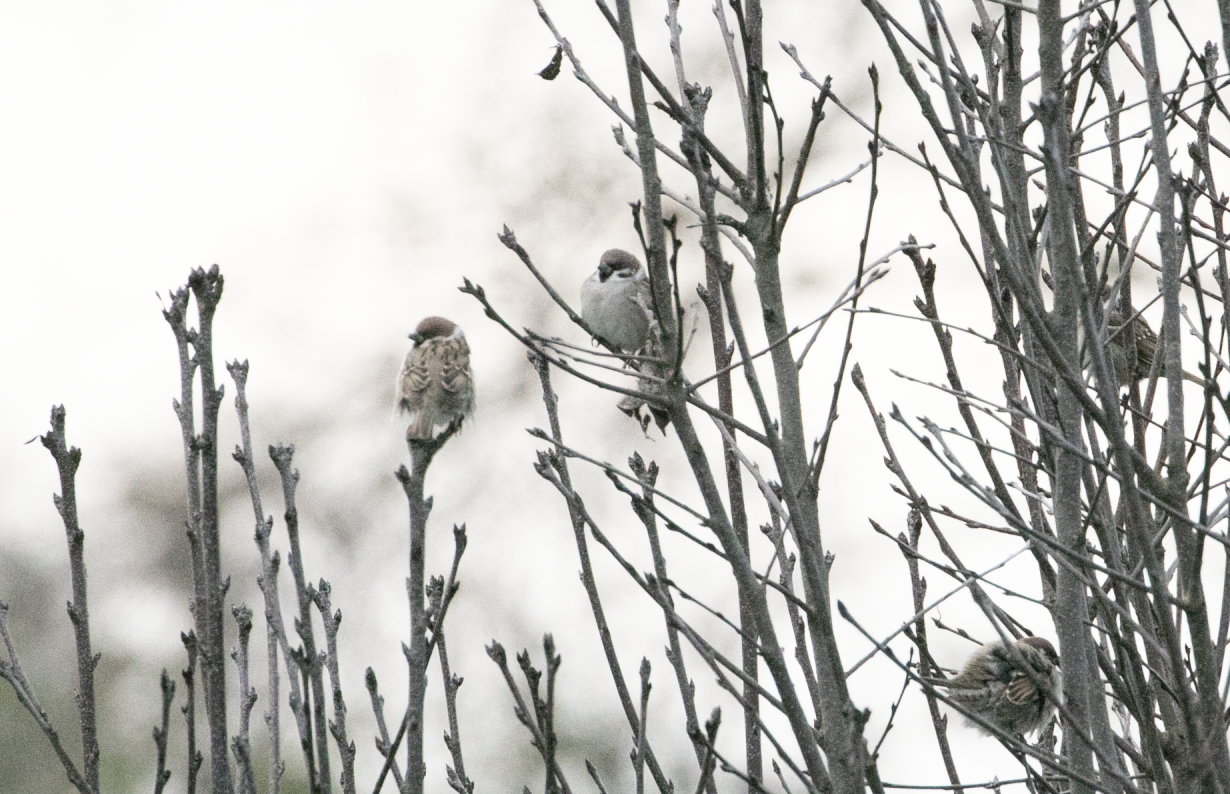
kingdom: Animalia
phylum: Chordata
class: Aves
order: Passeriformes
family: Passeridae
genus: Passer
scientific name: Passer montanus
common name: Eurasian tree sparrow
